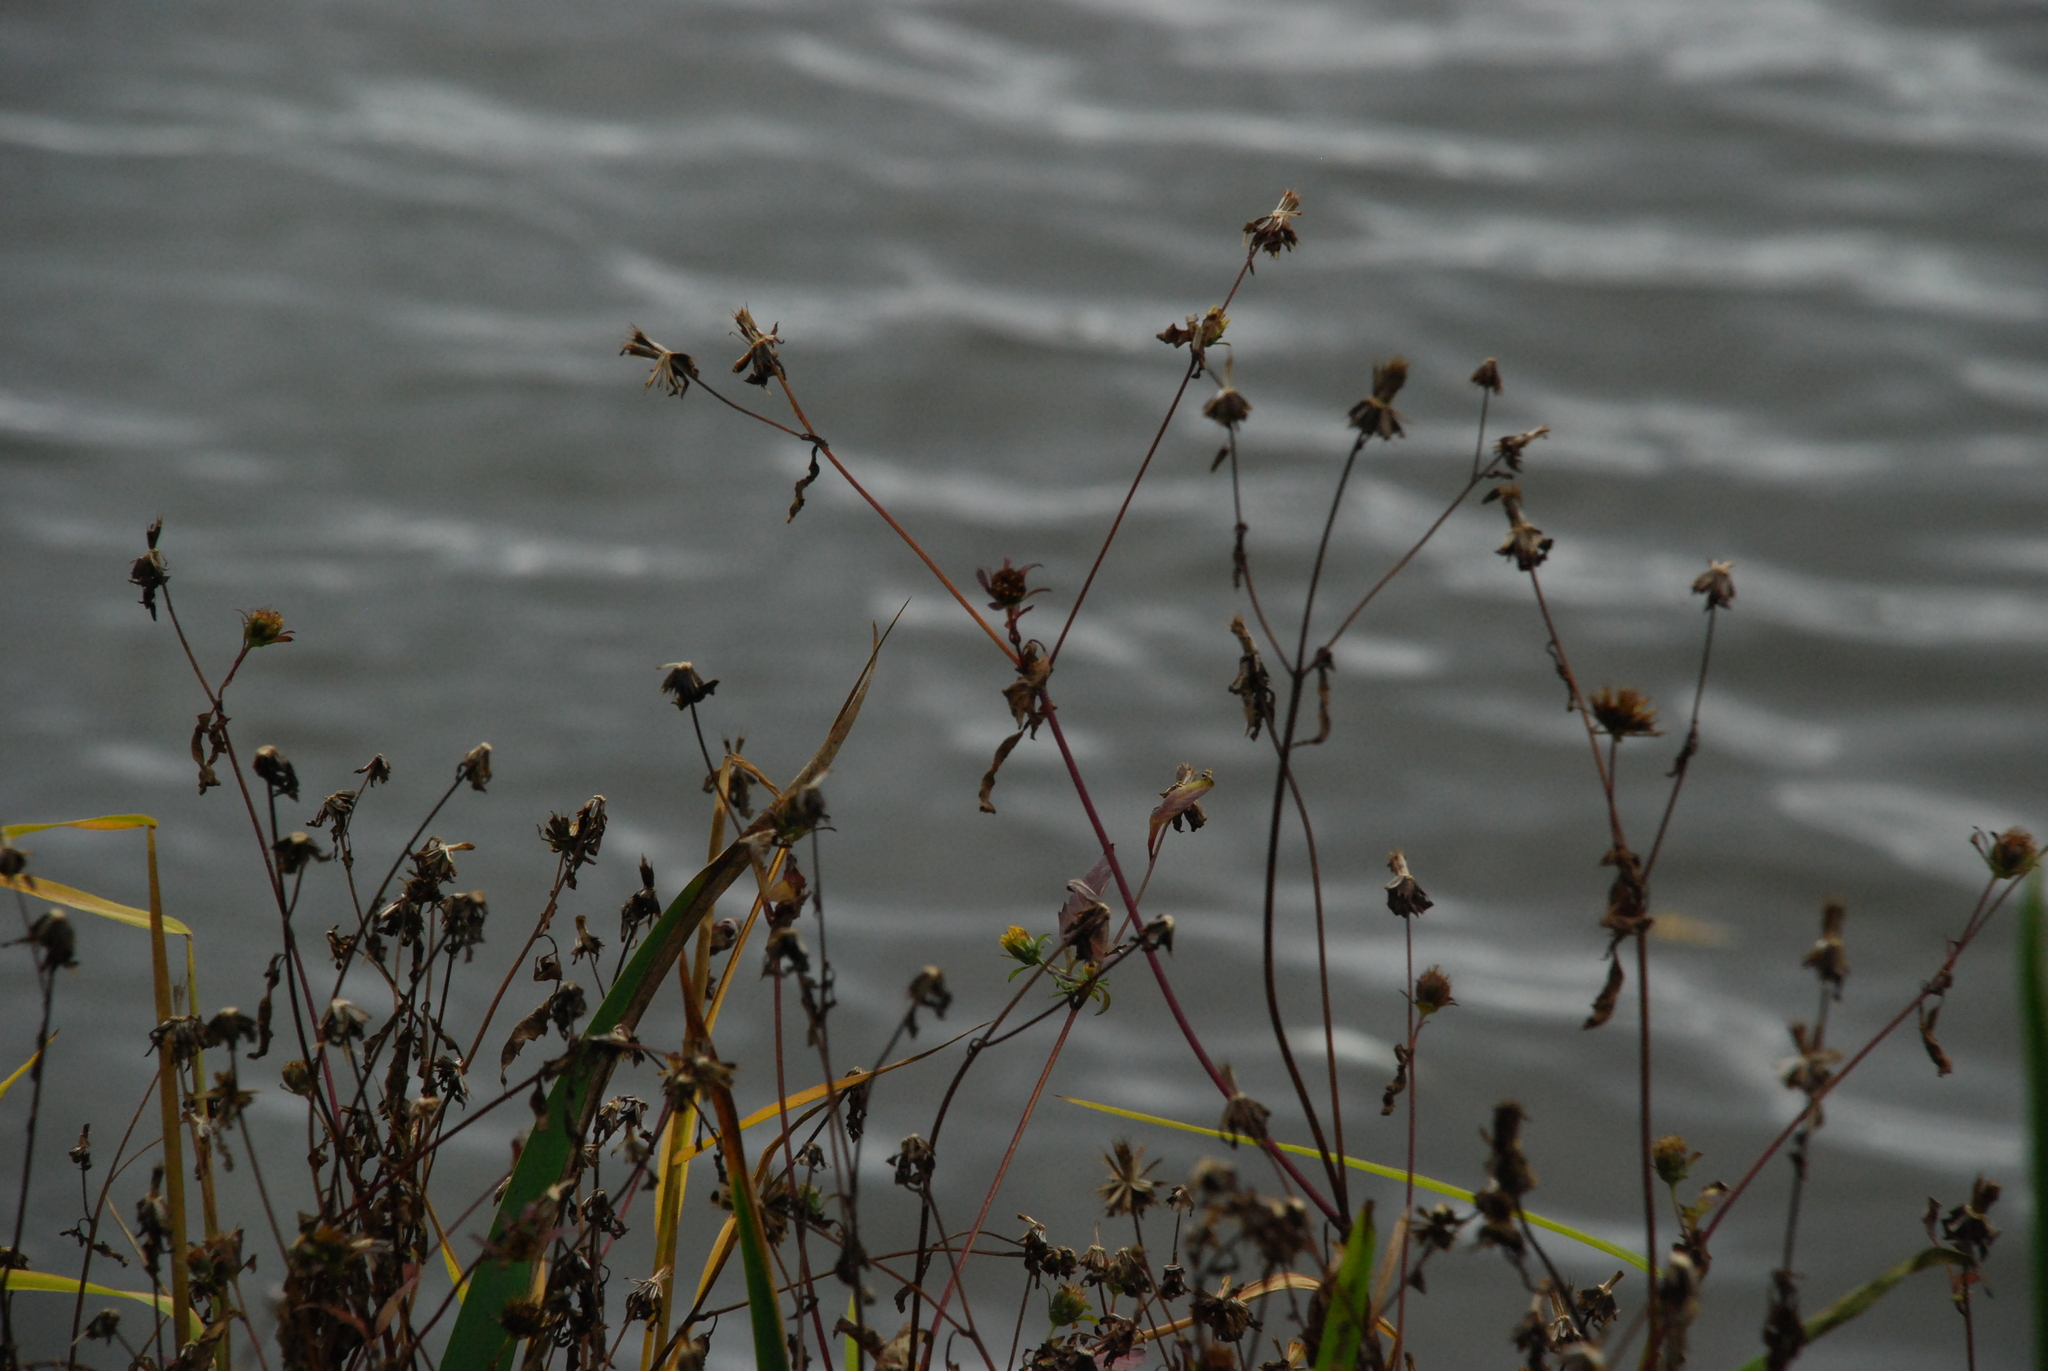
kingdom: Plantae
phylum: Tracheophyta
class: Magnoliopsida
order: Asterales
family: Asteraceae
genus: Bidens
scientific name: Bidens frondosa
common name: Beggarticks
